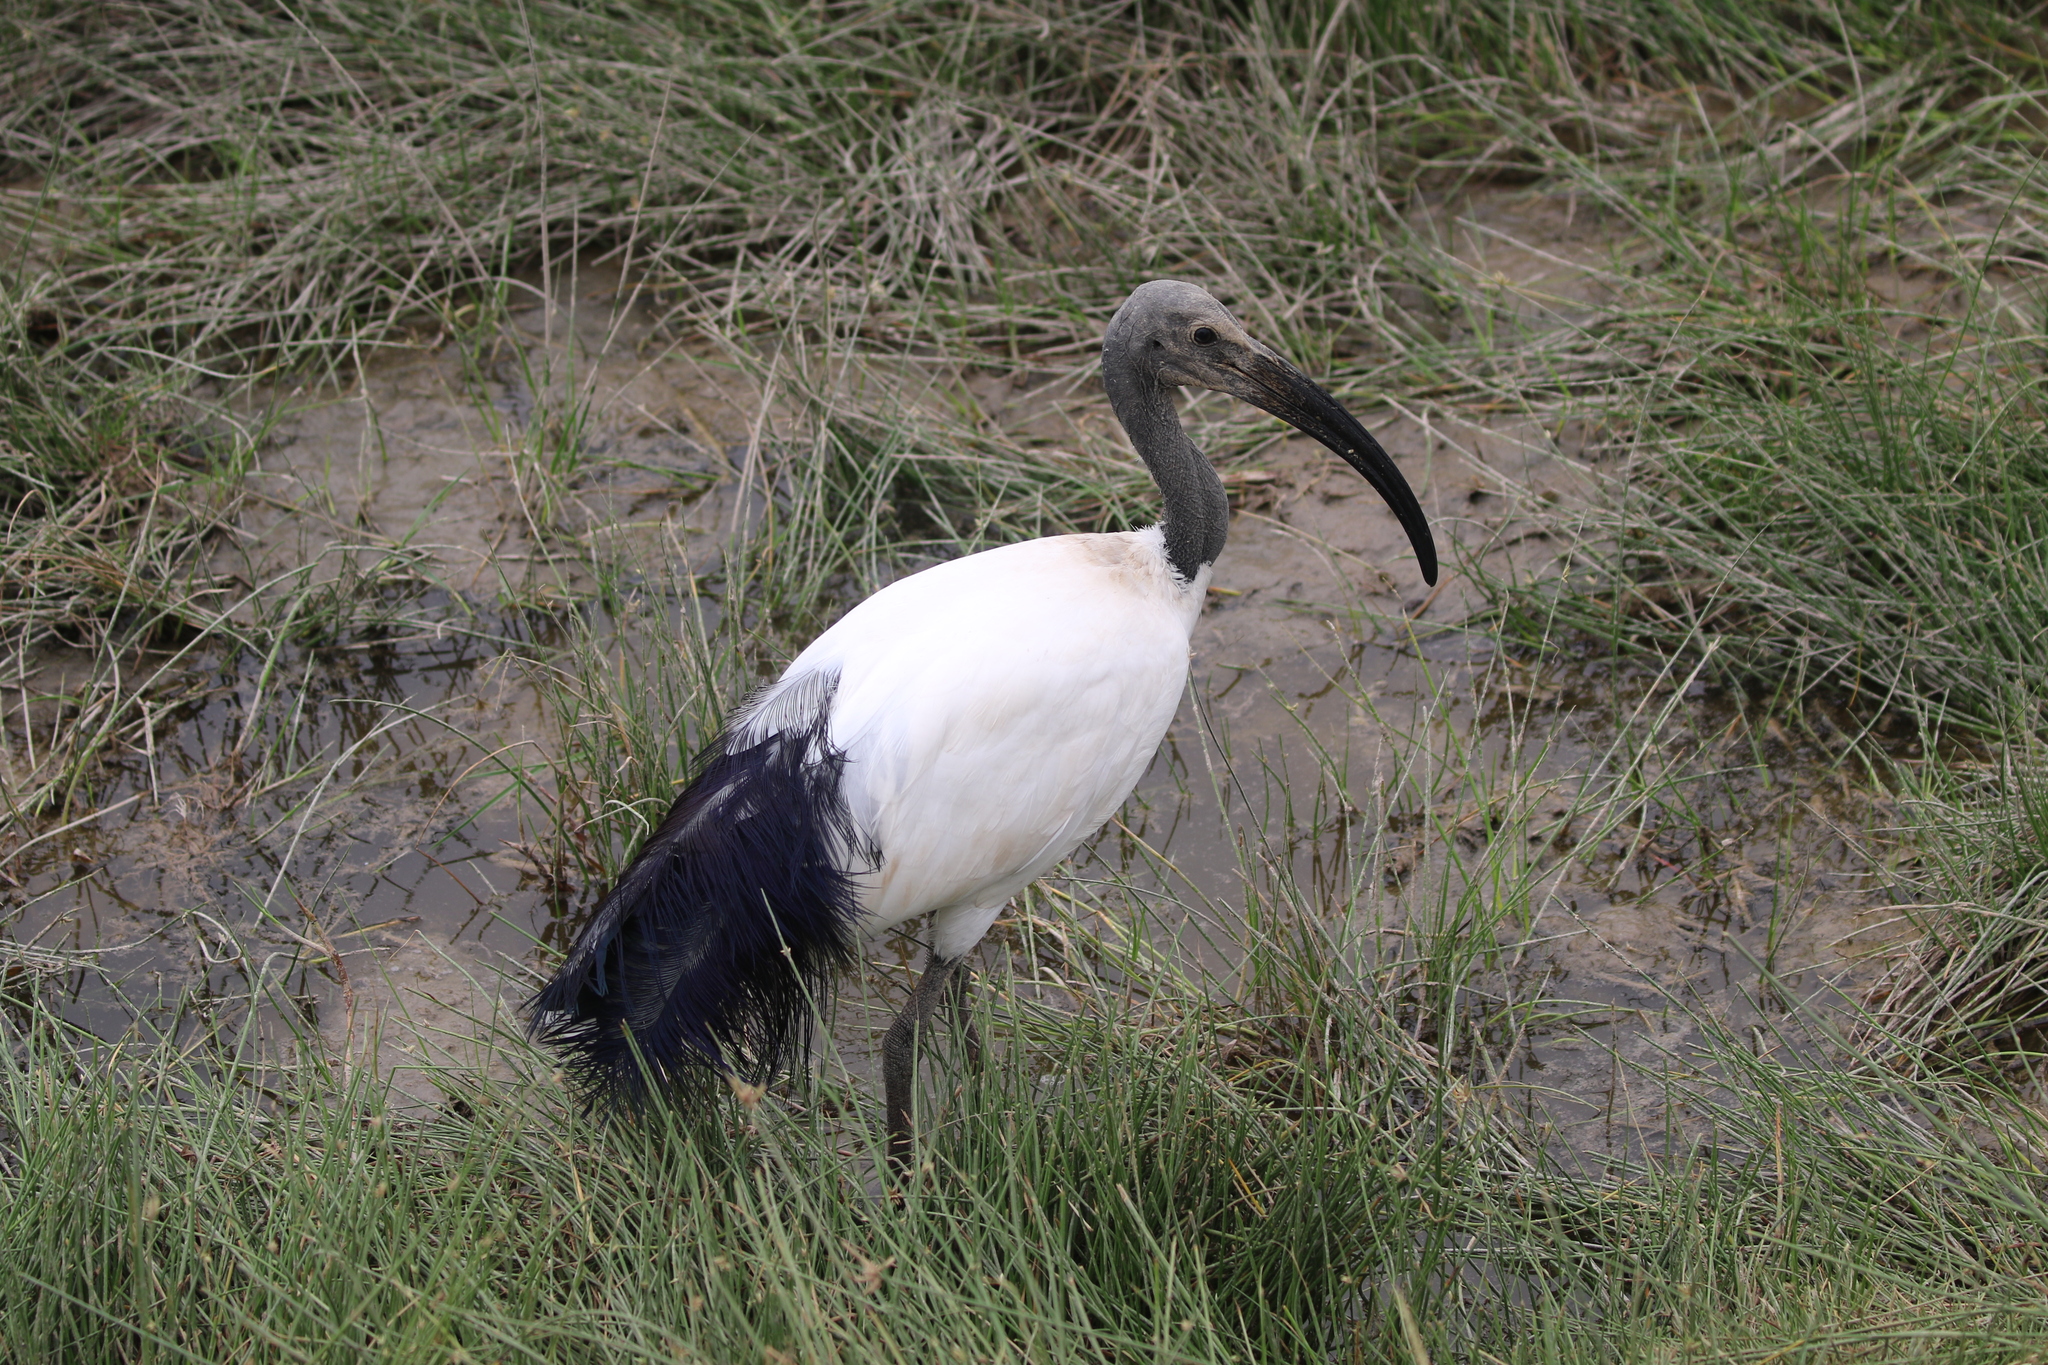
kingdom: Animalia
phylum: Chordata
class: Aves
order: Pelecaniformes
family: Threskiornithidae
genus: Threskiornis
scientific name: Threskiornis aethiopicus
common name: Sacred ibis
